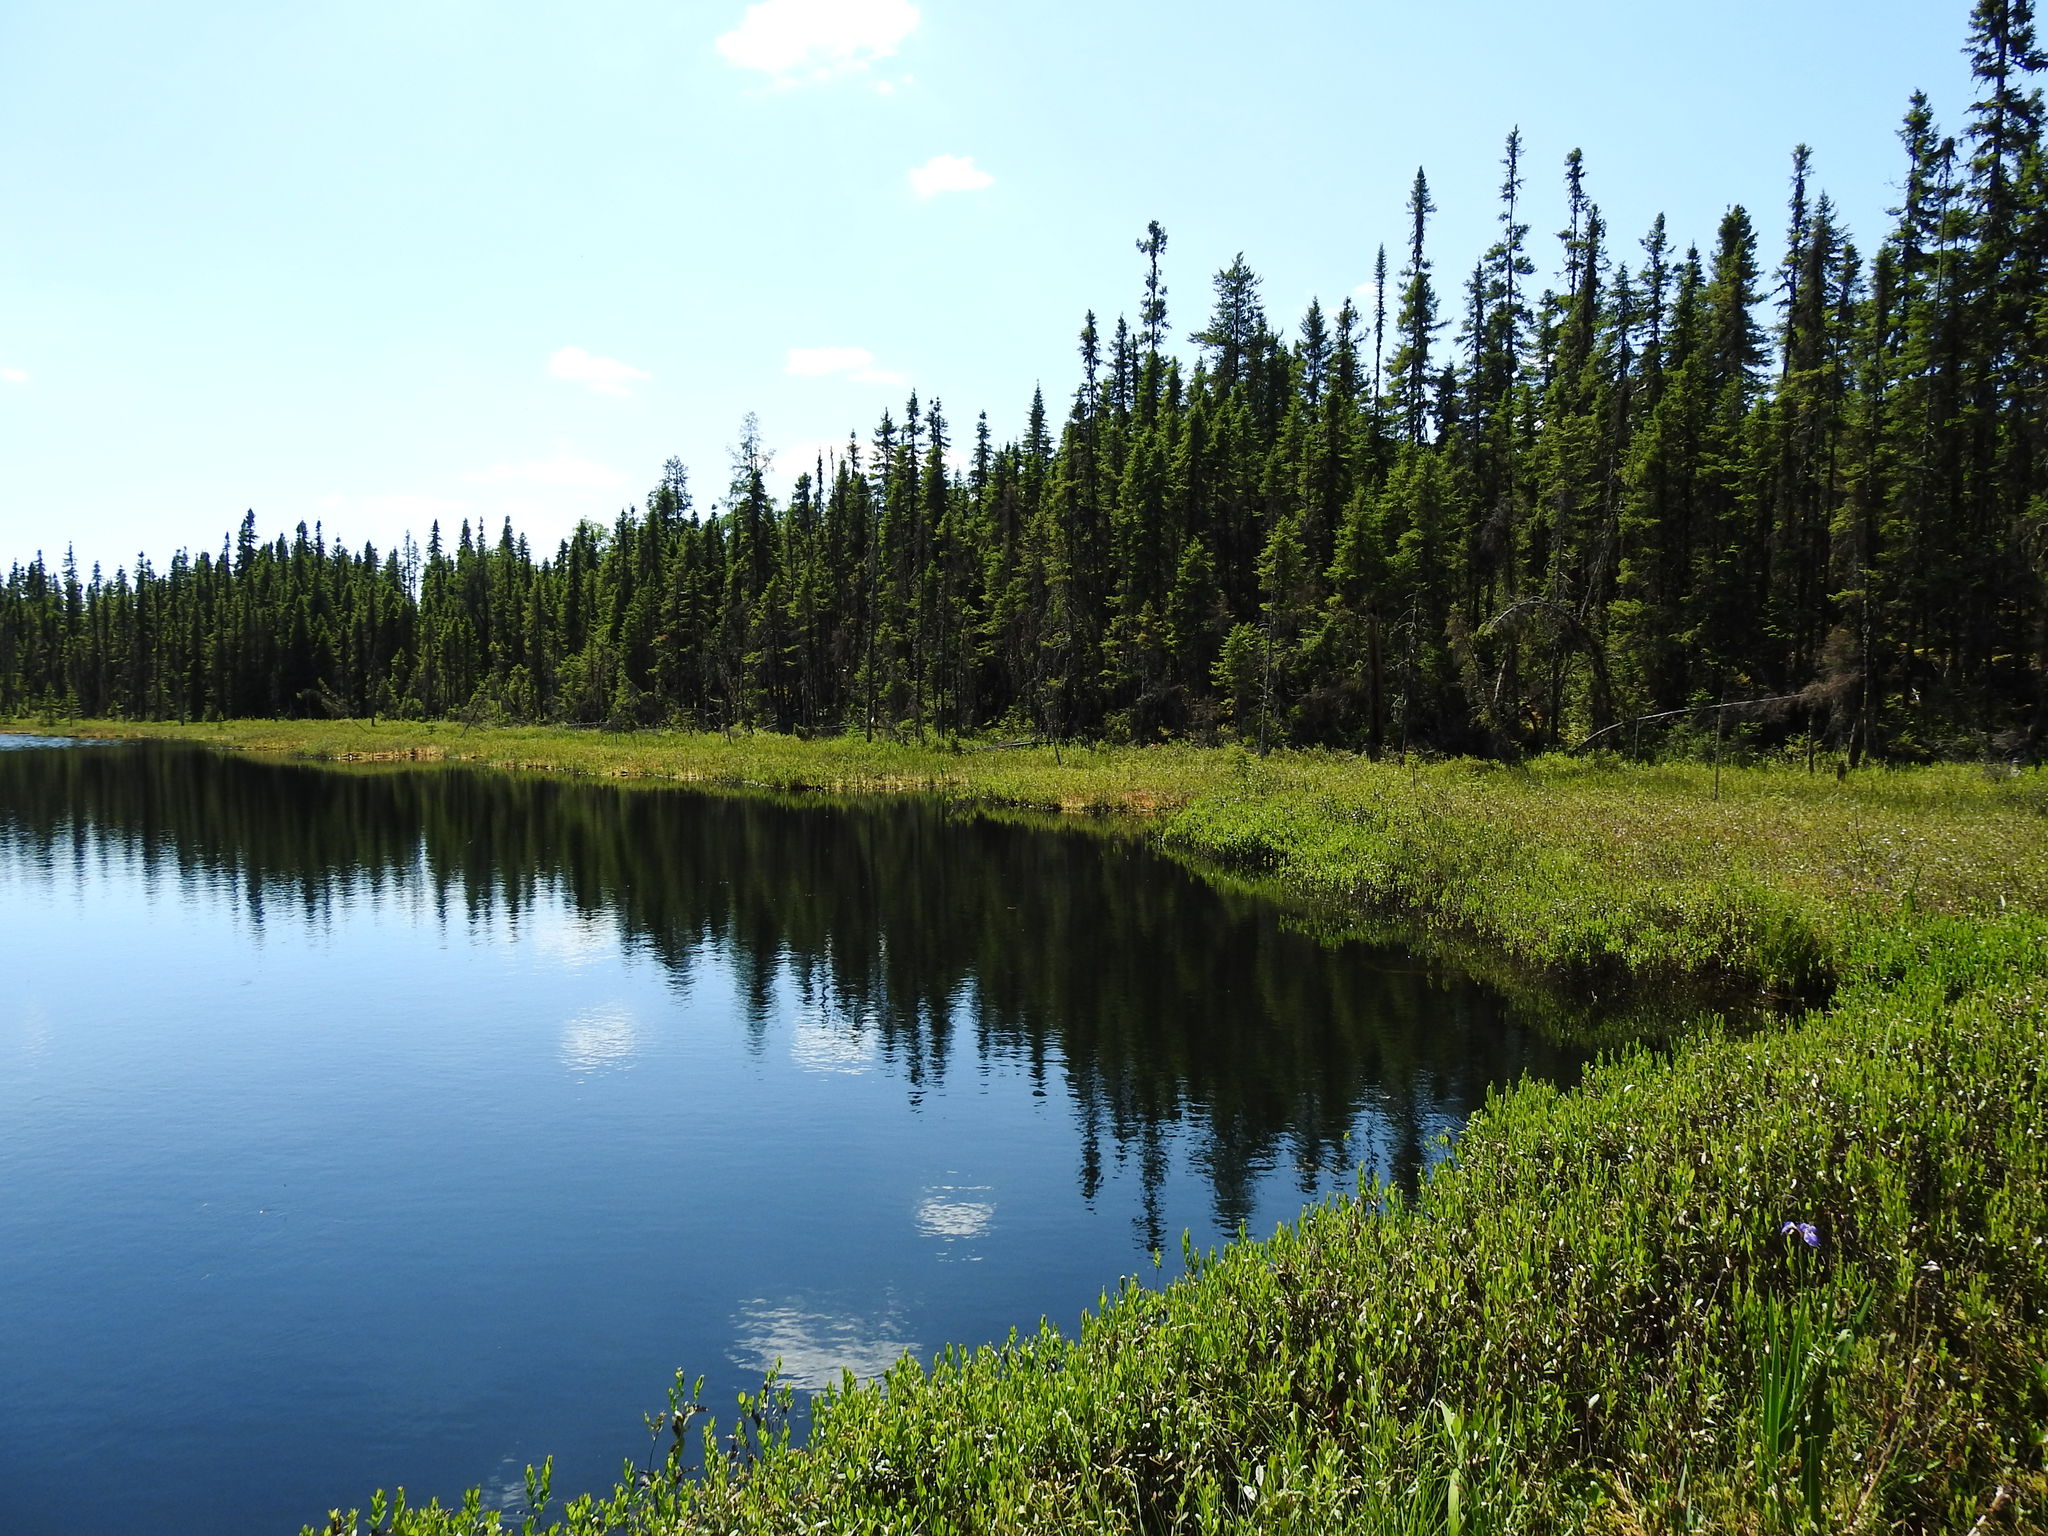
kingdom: Plantae
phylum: Tracheophyta
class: Pinopsida
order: Pinales
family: Pinaceae
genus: Picea
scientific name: Picea mariana
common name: Black spruce
